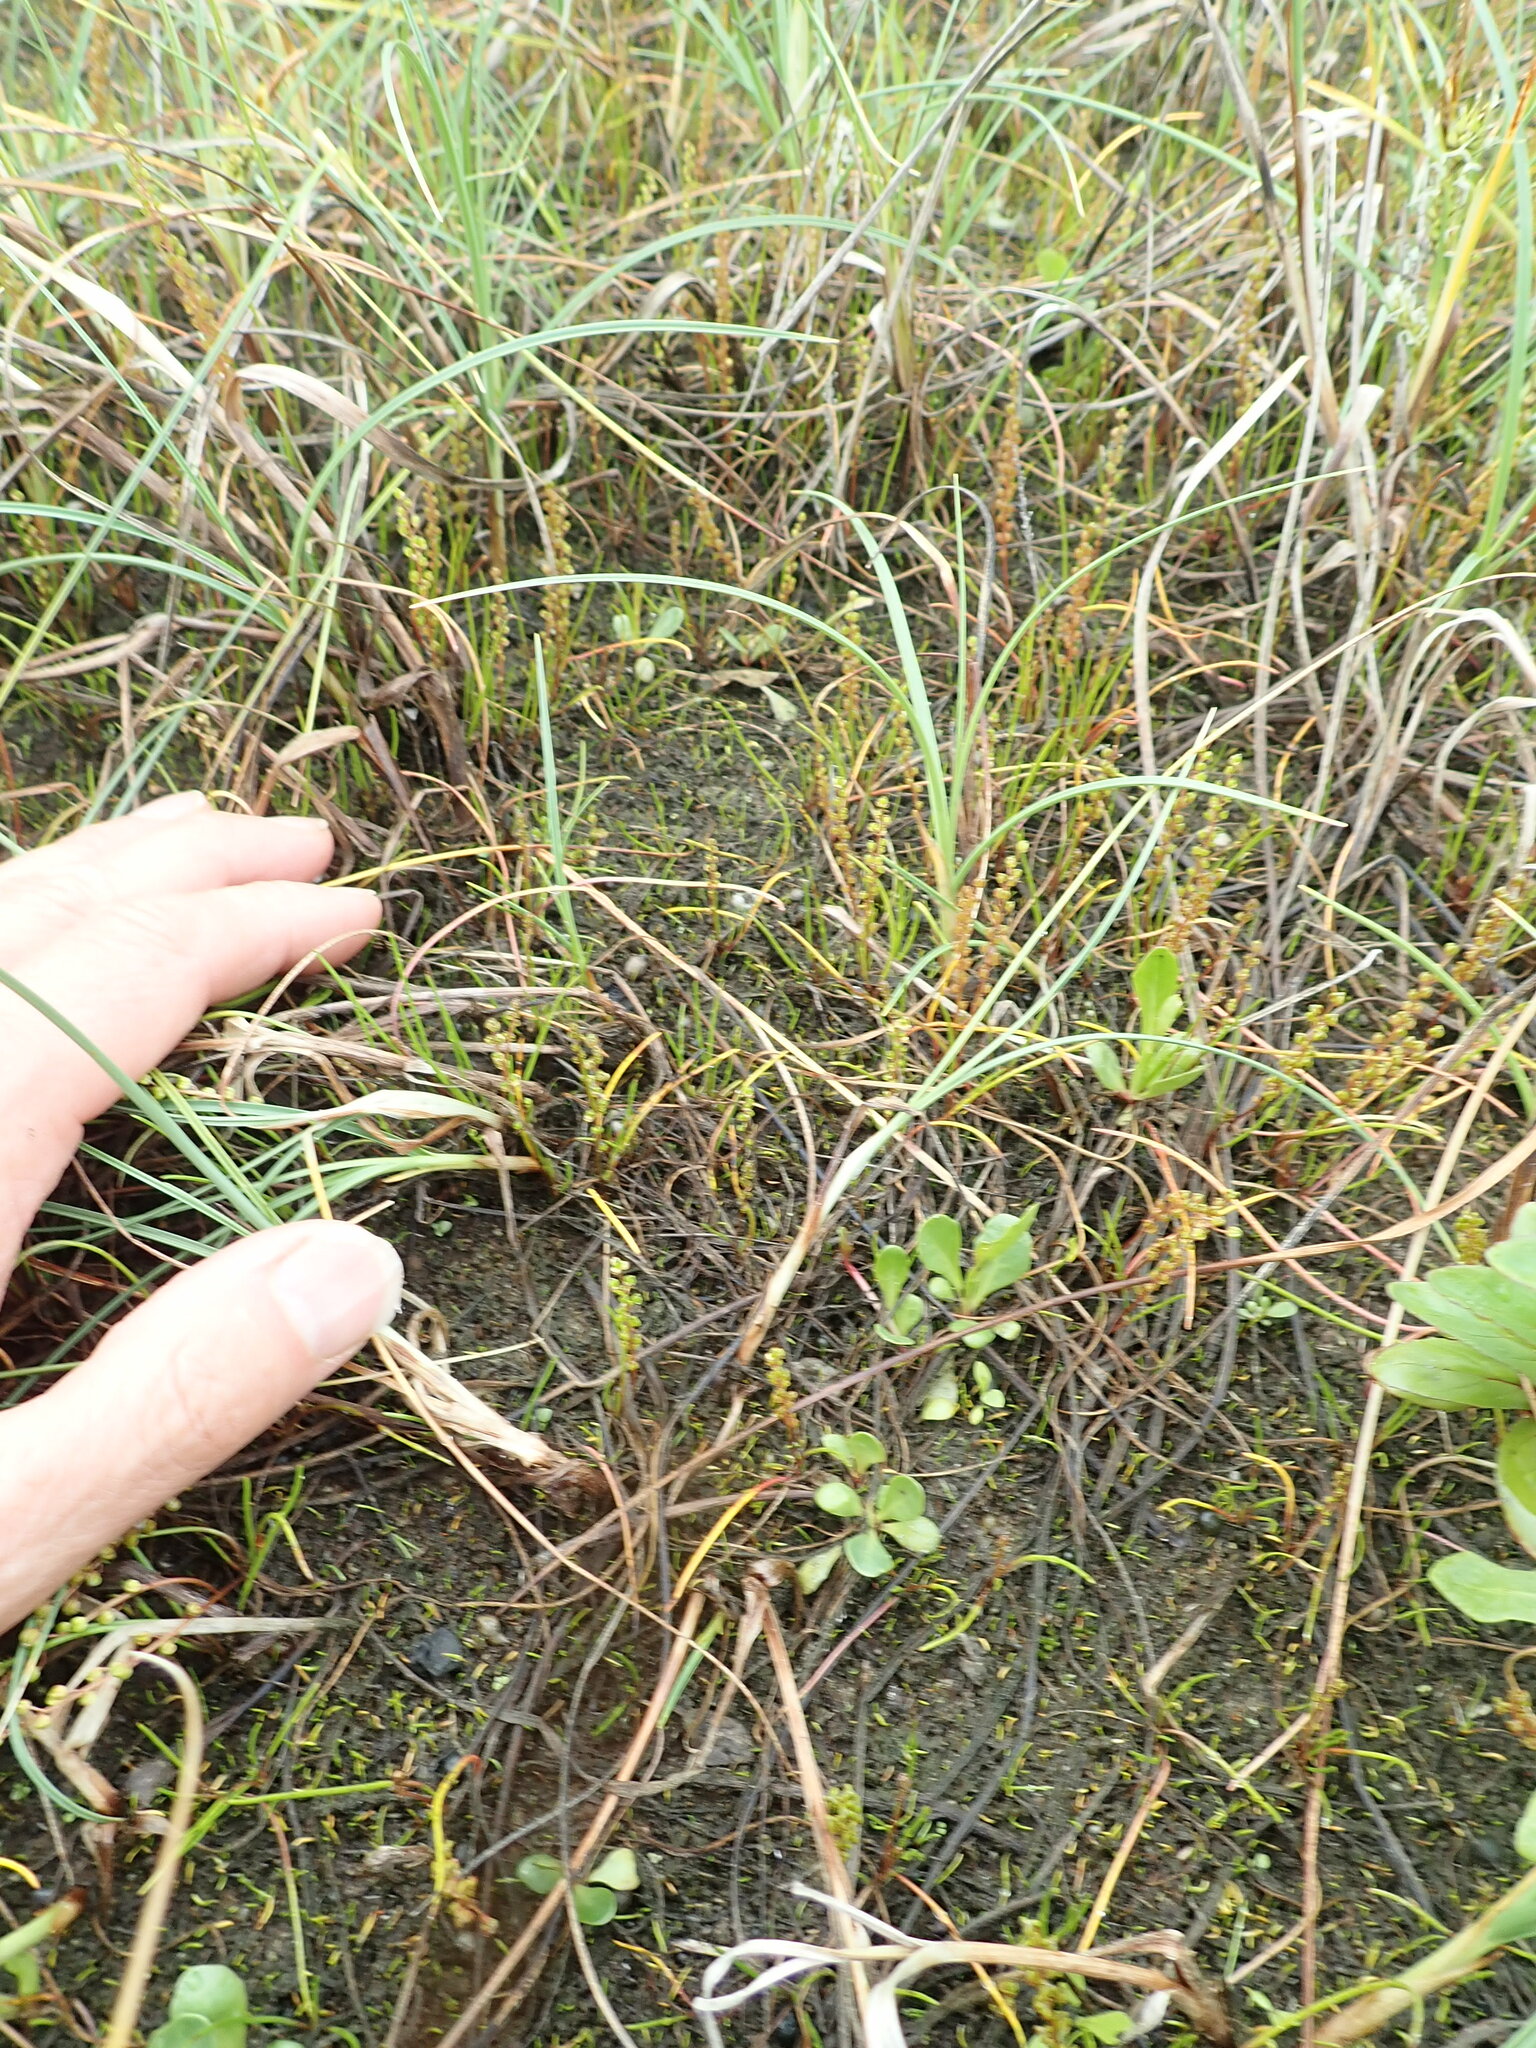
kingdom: Plantae
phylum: Tracheophyta
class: Liliopsida
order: Alismatales
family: Juncaginaceae
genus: Triglochin
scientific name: Triglochin striata
